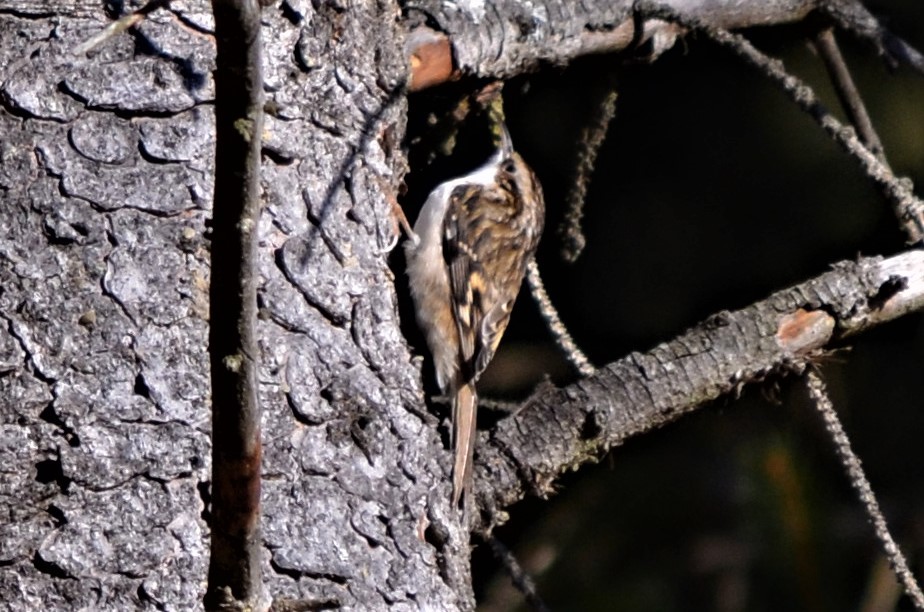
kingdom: Animalia
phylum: Chordata
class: Aves
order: Passeriformes
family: Certhiidae
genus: Certhia
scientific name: Certhia familiaris
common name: Eurasian treecreeper
